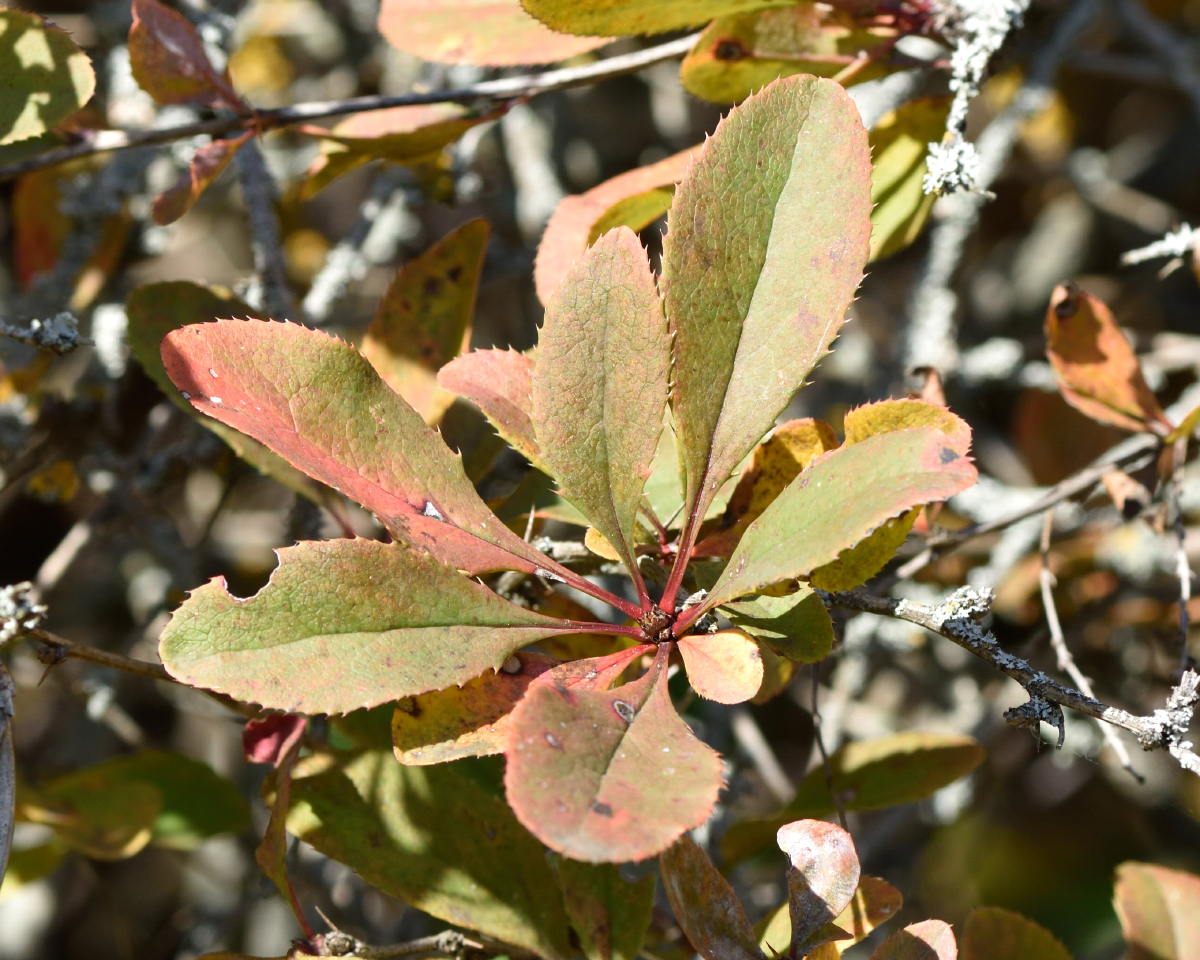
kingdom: Plantae
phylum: Tracheophyta
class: Magnoliopsida
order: Ranunculales
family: Berberidaceae
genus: Berberis
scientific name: Berberis vulgaris
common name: Barberry
